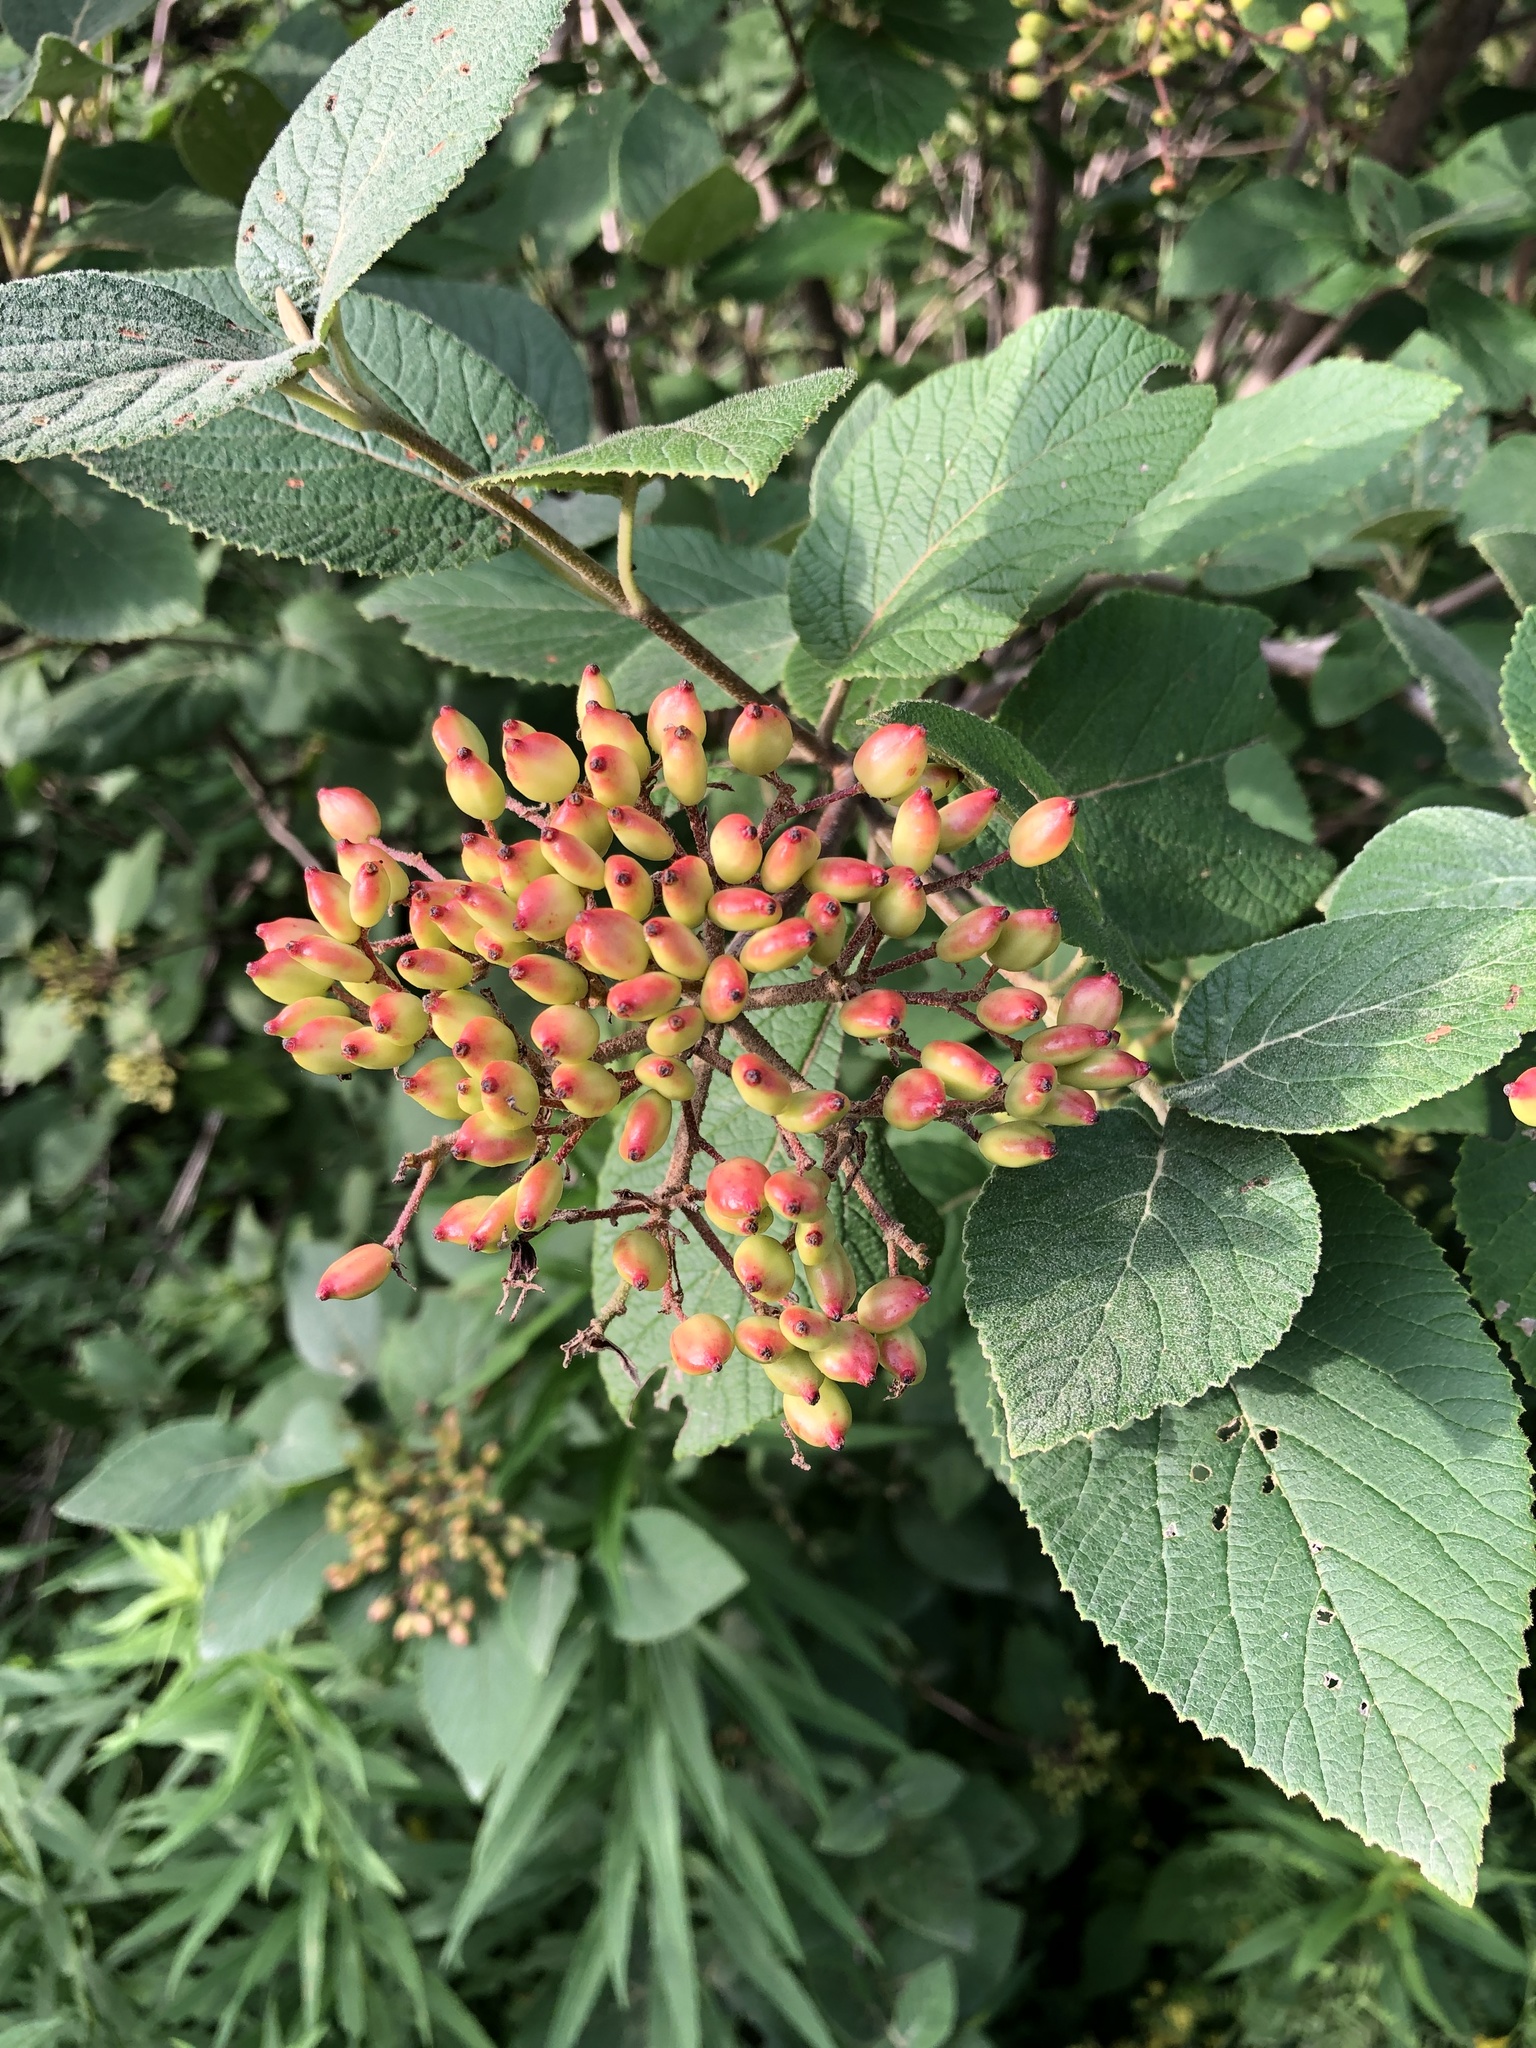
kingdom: Plantae
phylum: Tracheophyta
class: Magnoliopsida
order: Dipsacales
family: Viburnaceae
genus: Viburnum
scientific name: Viburnum lantana
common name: Wayfaring tree
